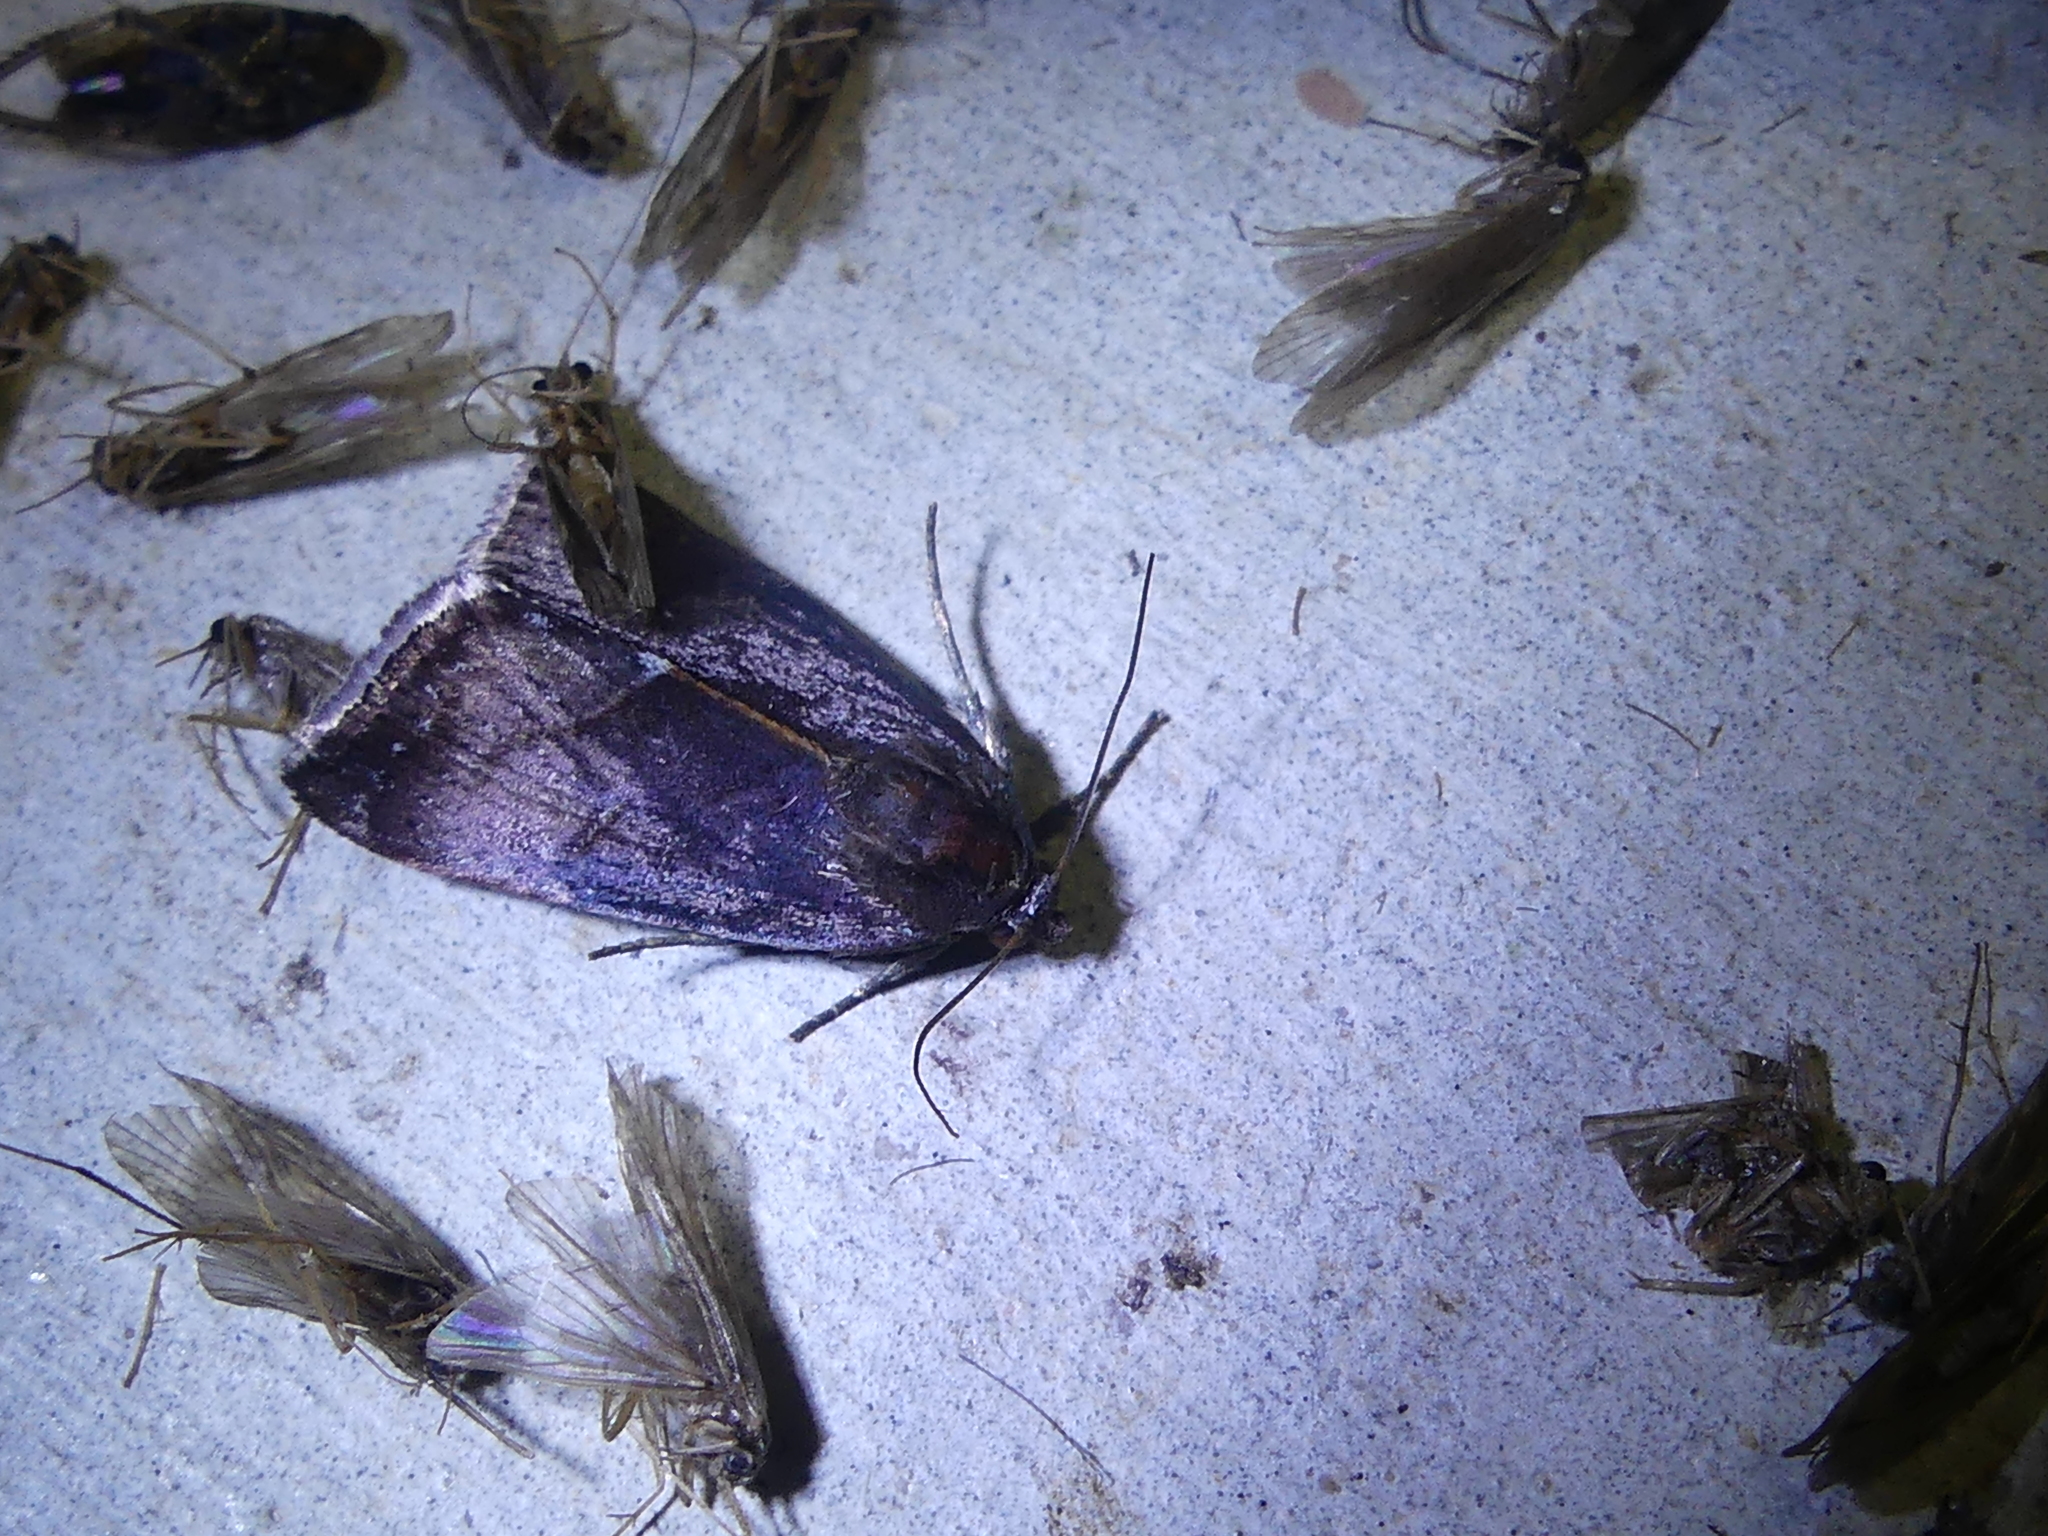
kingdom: Animalia
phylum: Arthropoda
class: Insecta
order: Lepidoptera
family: Noctuidae
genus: Galgula
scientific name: Galgula partita
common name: Wedgeling
